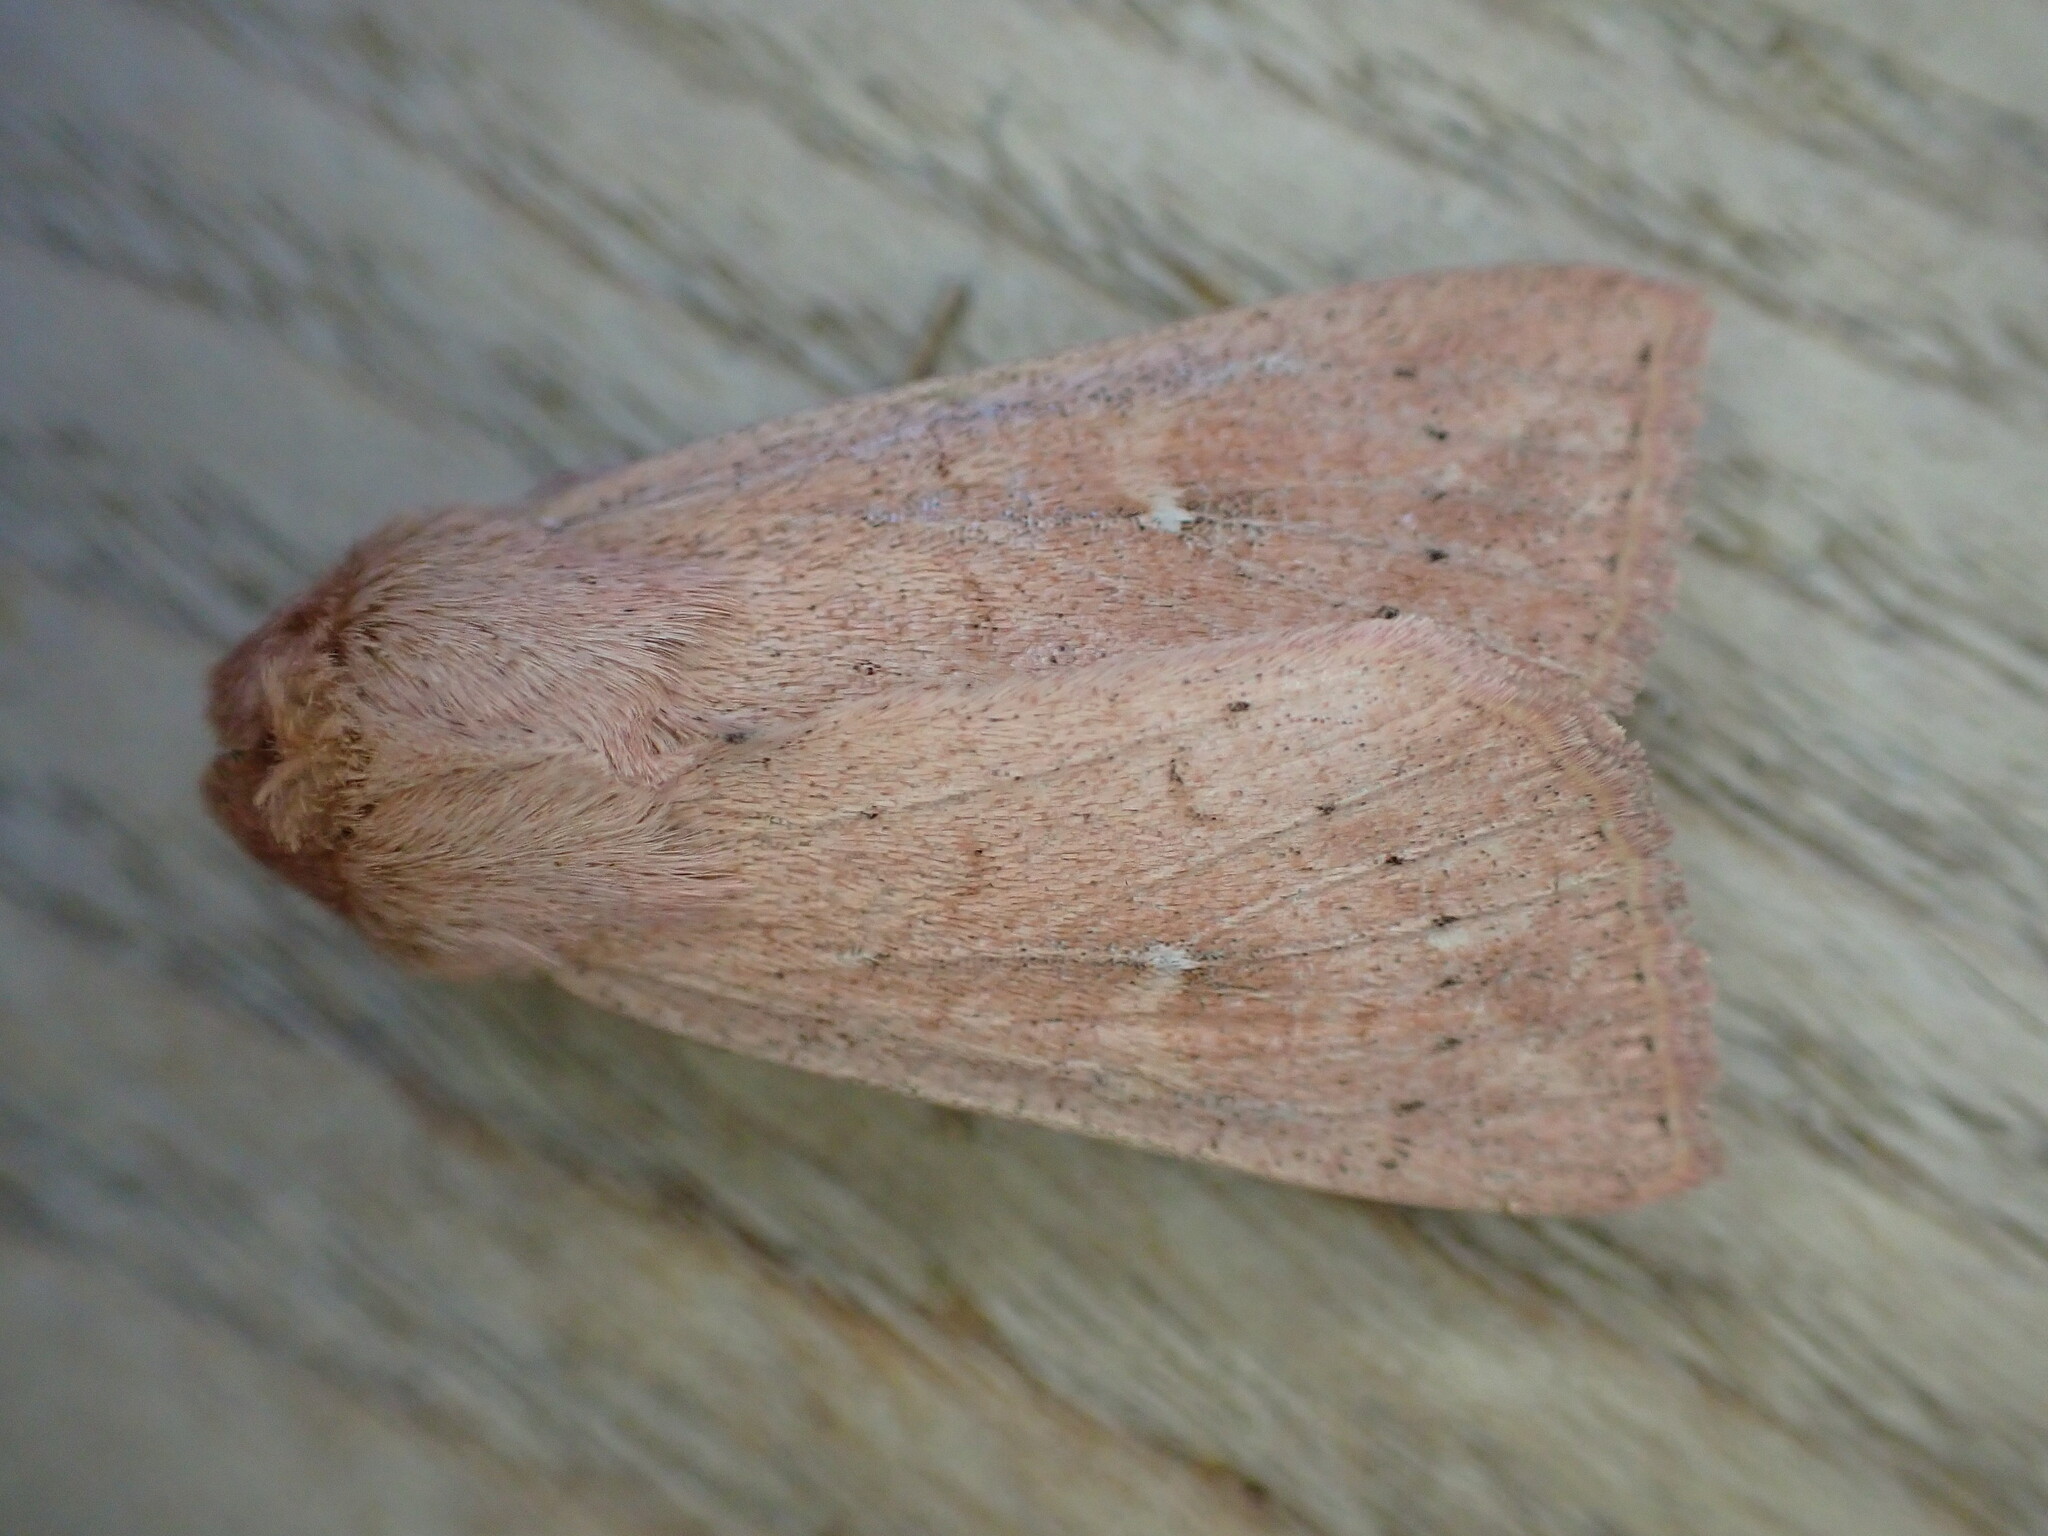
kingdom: Animalia
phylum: Arthropoda
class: Insecta
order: Lepidoptera
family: Noctuidae
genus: Mythimna
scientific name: Mythimna ferrago
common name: Clay
